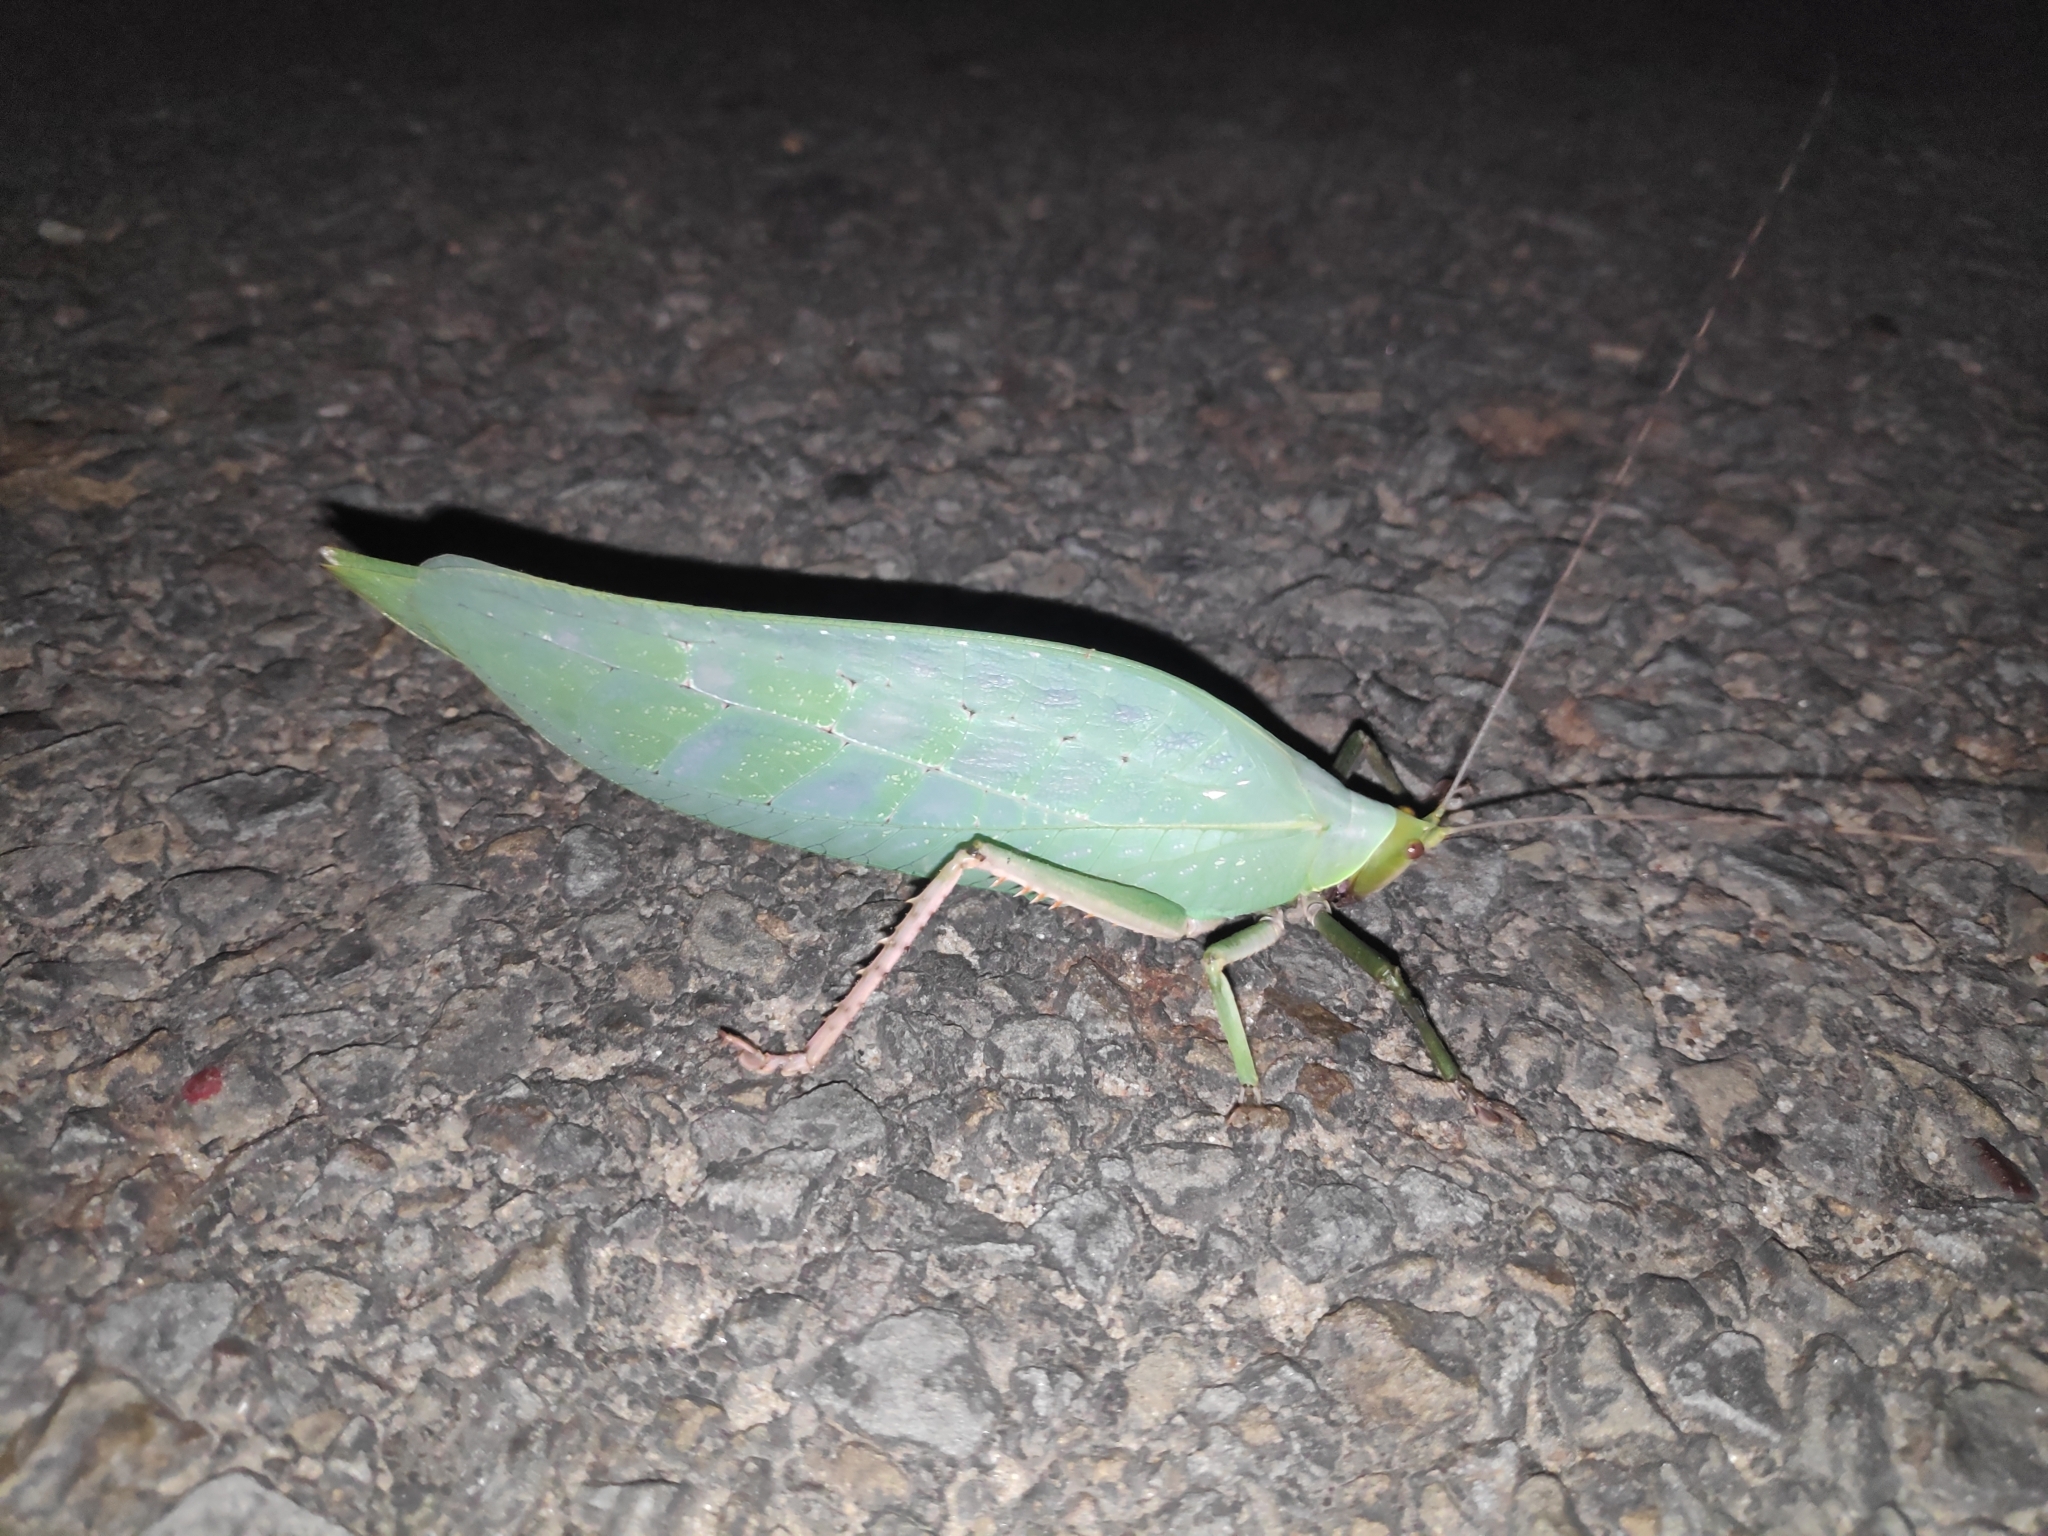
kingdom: Animalia
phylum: Arthropoda
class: Insecta
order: Orthoptera
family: Tettigoniidae
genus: Onomarchus
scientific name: Onomarchus uninotatus
